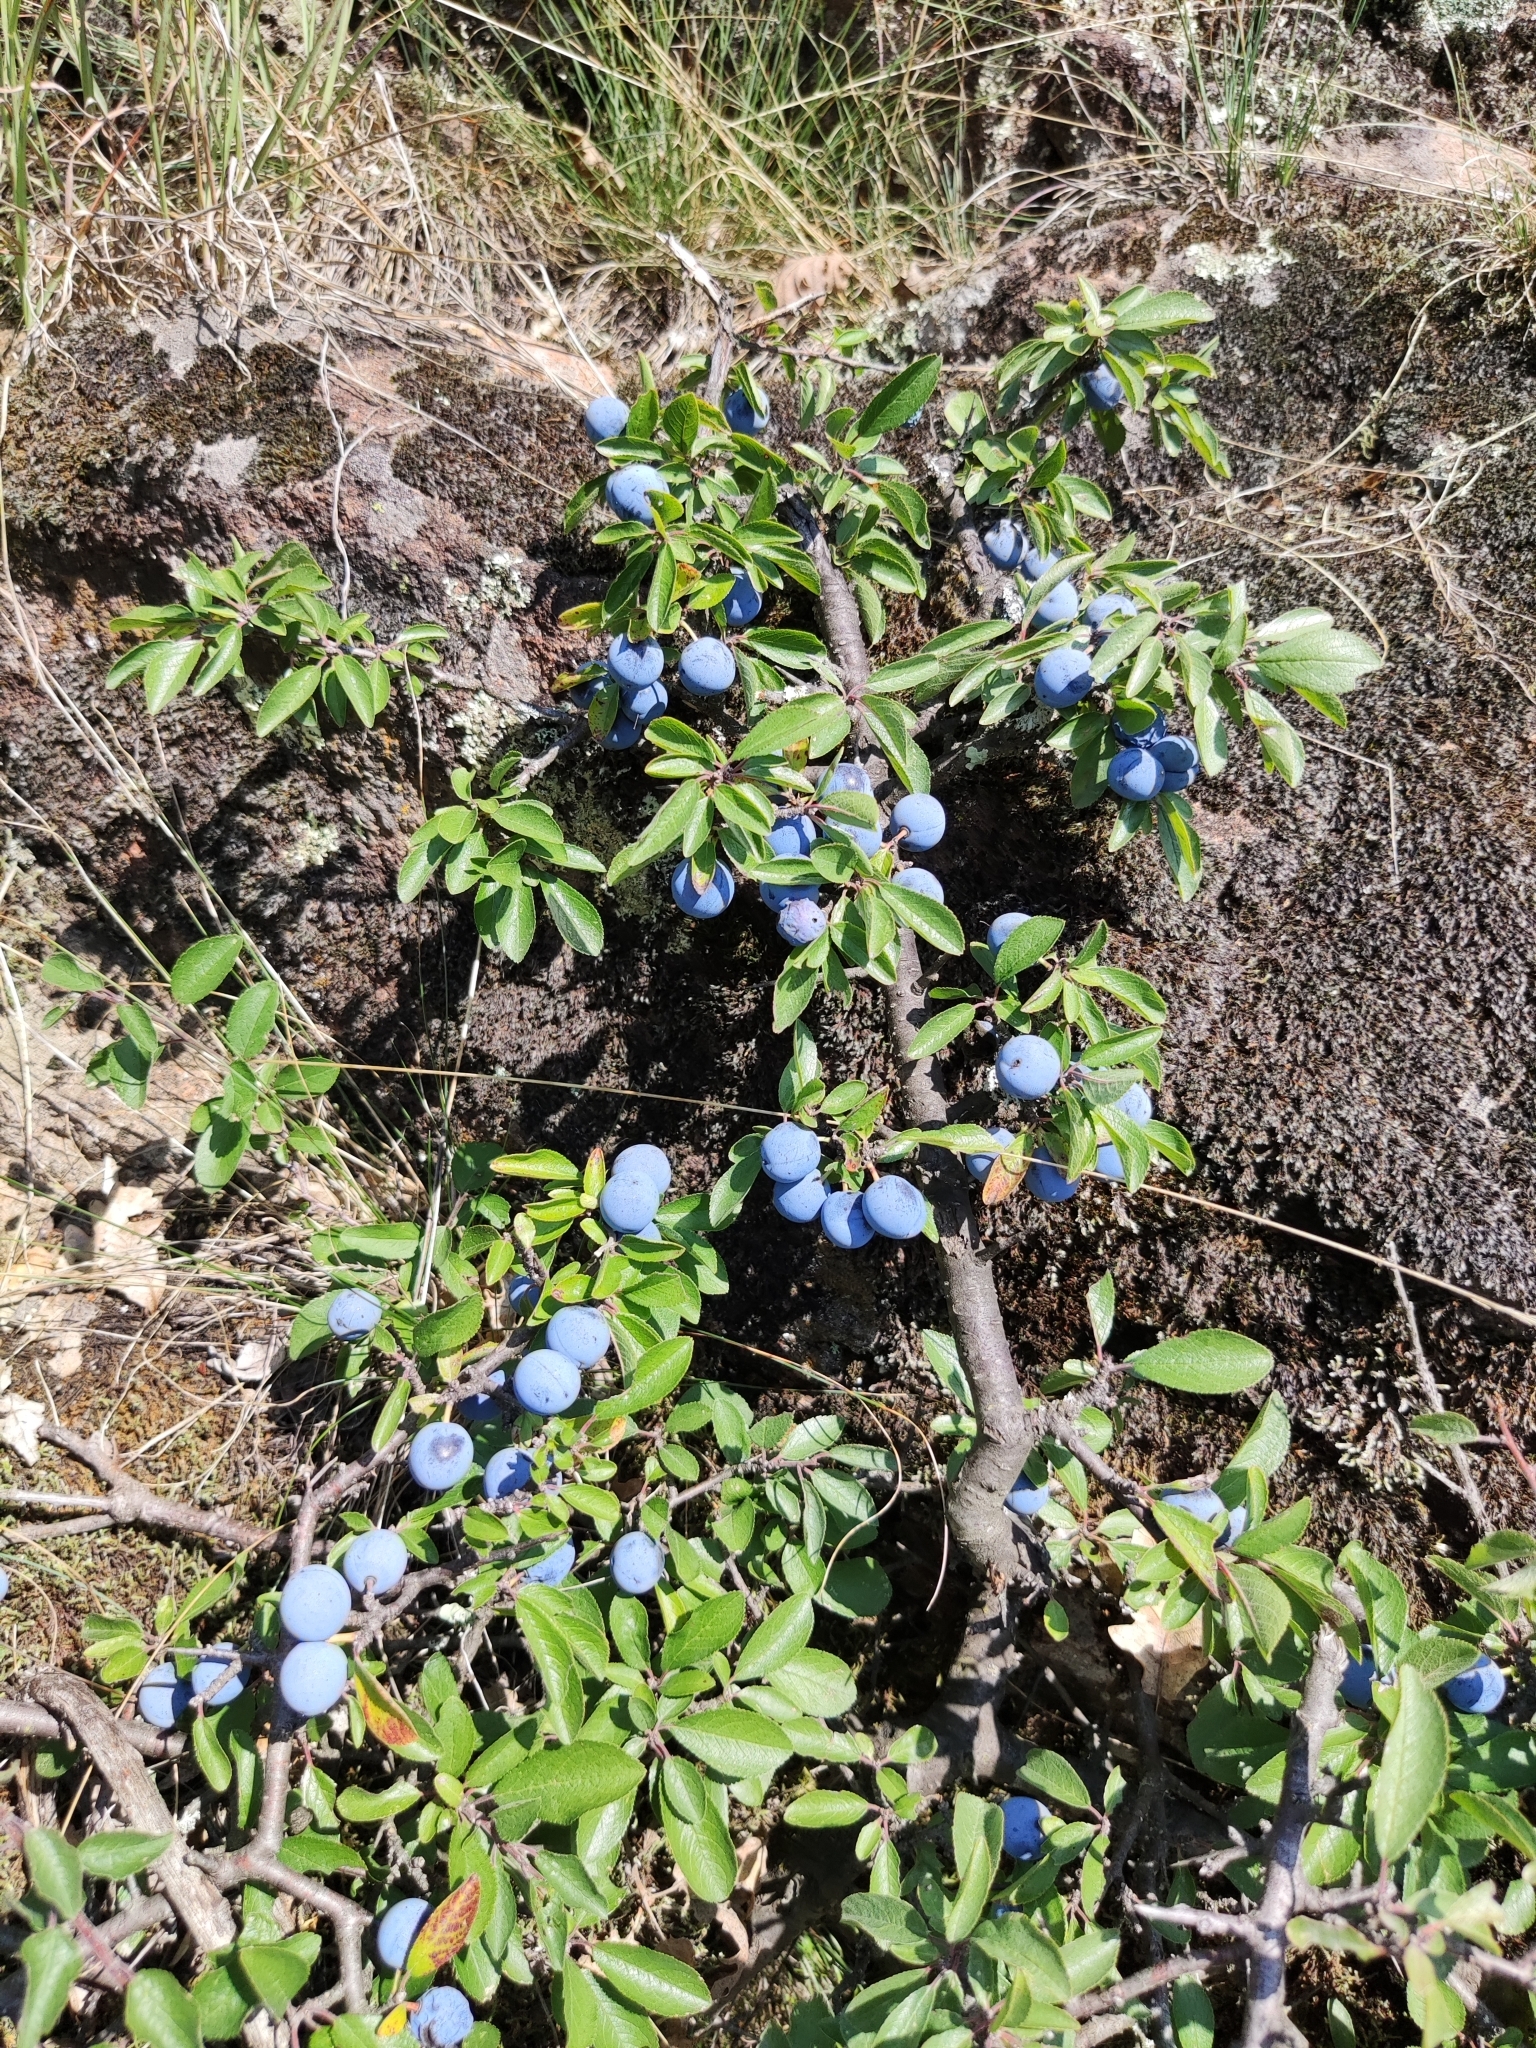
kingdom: Plantae
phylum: Tracheophyta
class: Magnoliopsida
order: Rosales
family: Rosaceae
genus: Prunus
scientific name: Prunus spinosa
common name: Blackthorn
